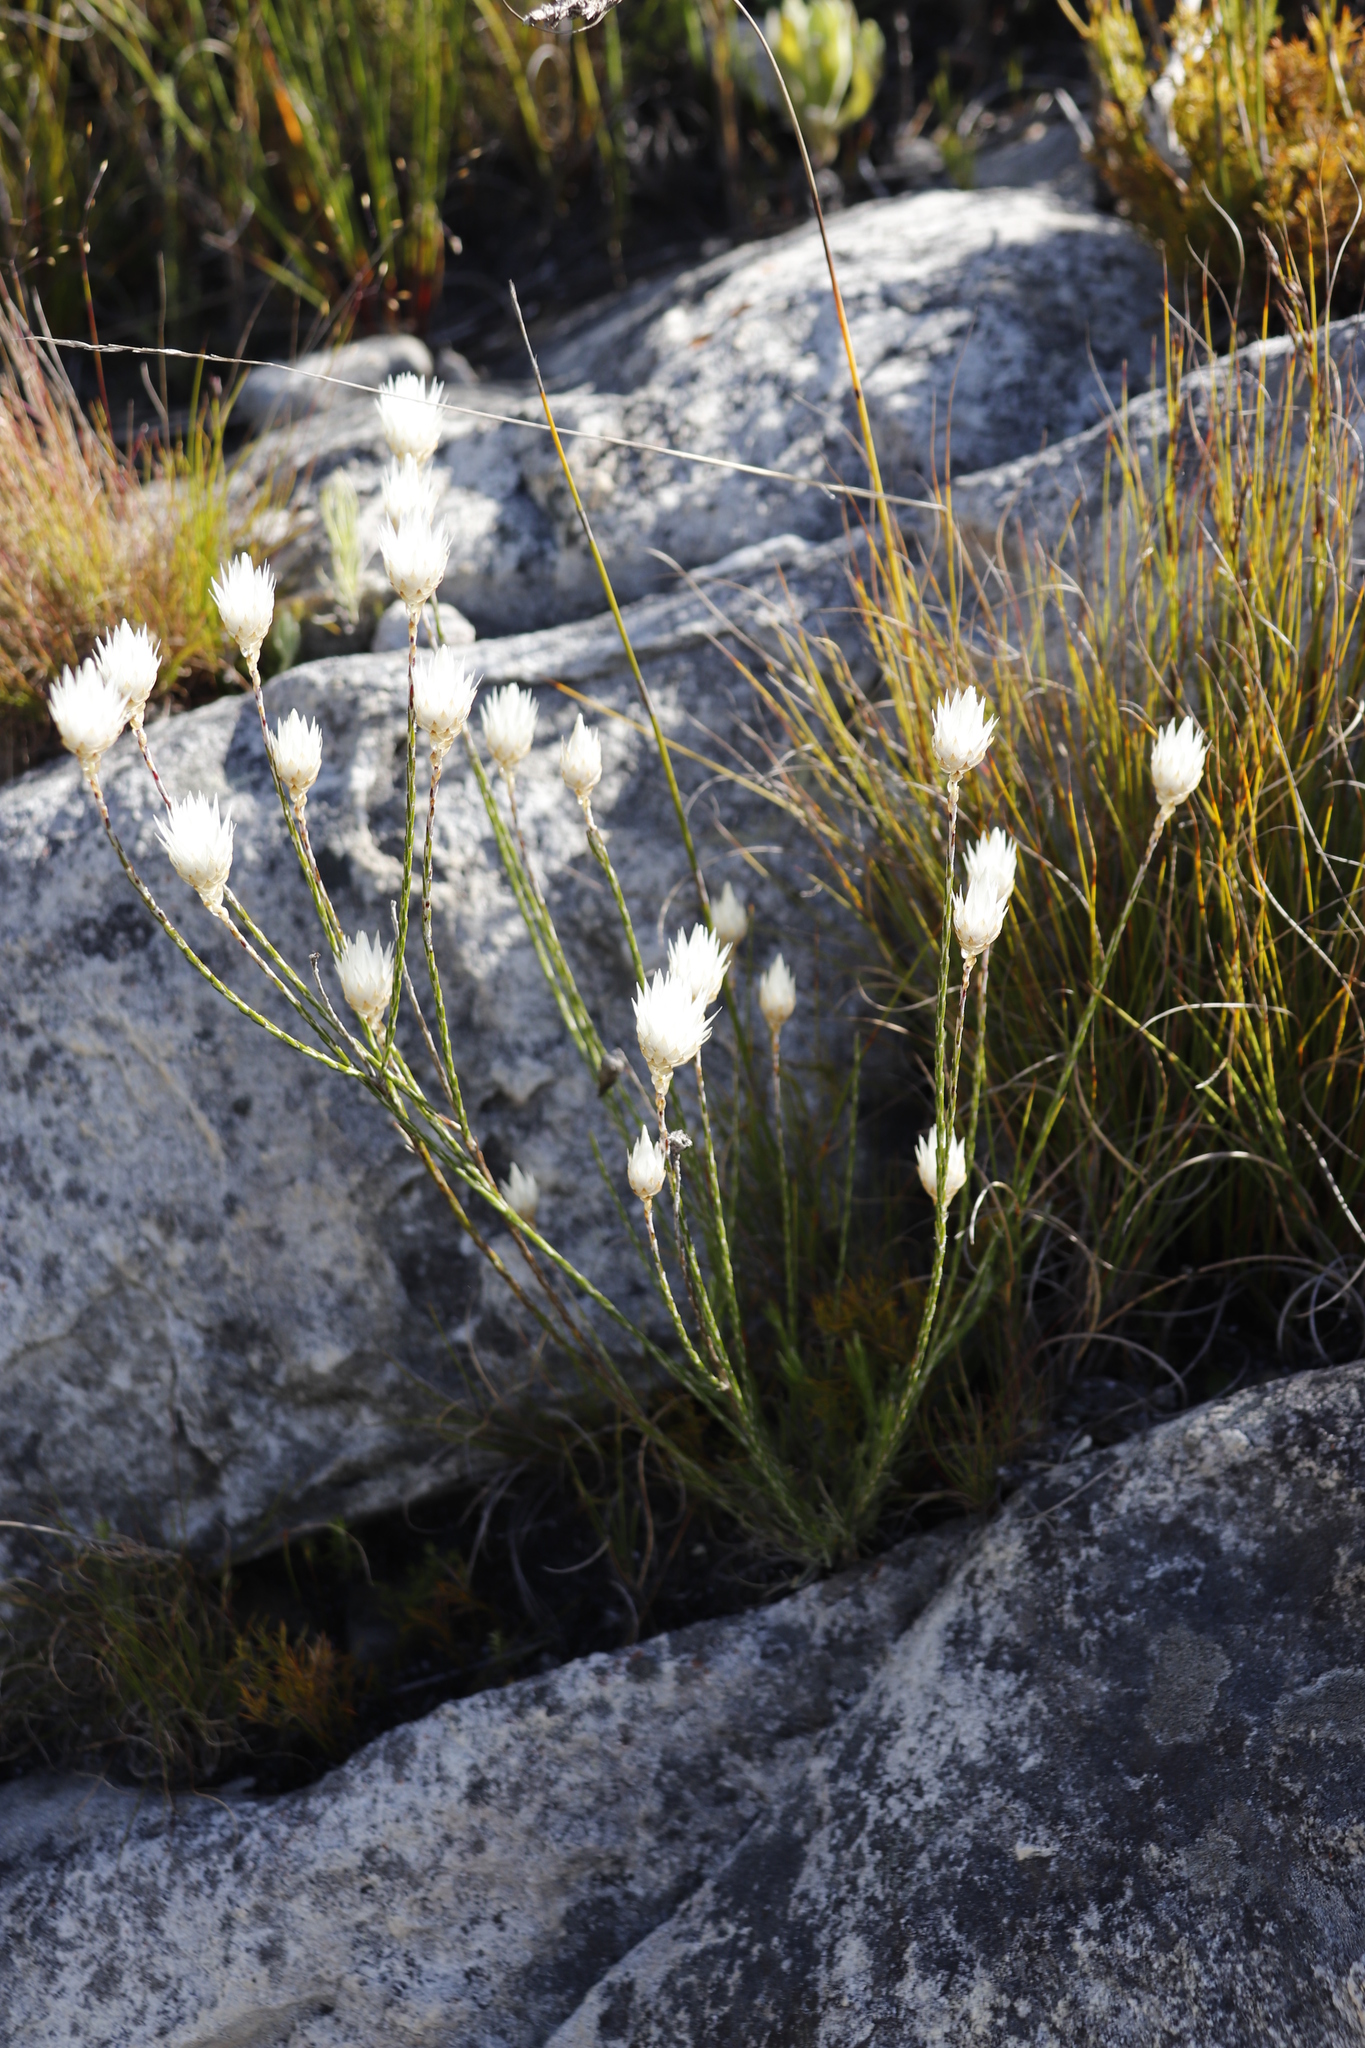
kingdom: Plantae
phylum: Tracheophyta
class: Magnoliopsida
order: Asterales
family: Asteraceae
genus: Edmondia
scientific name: Edmondia sesamoides
